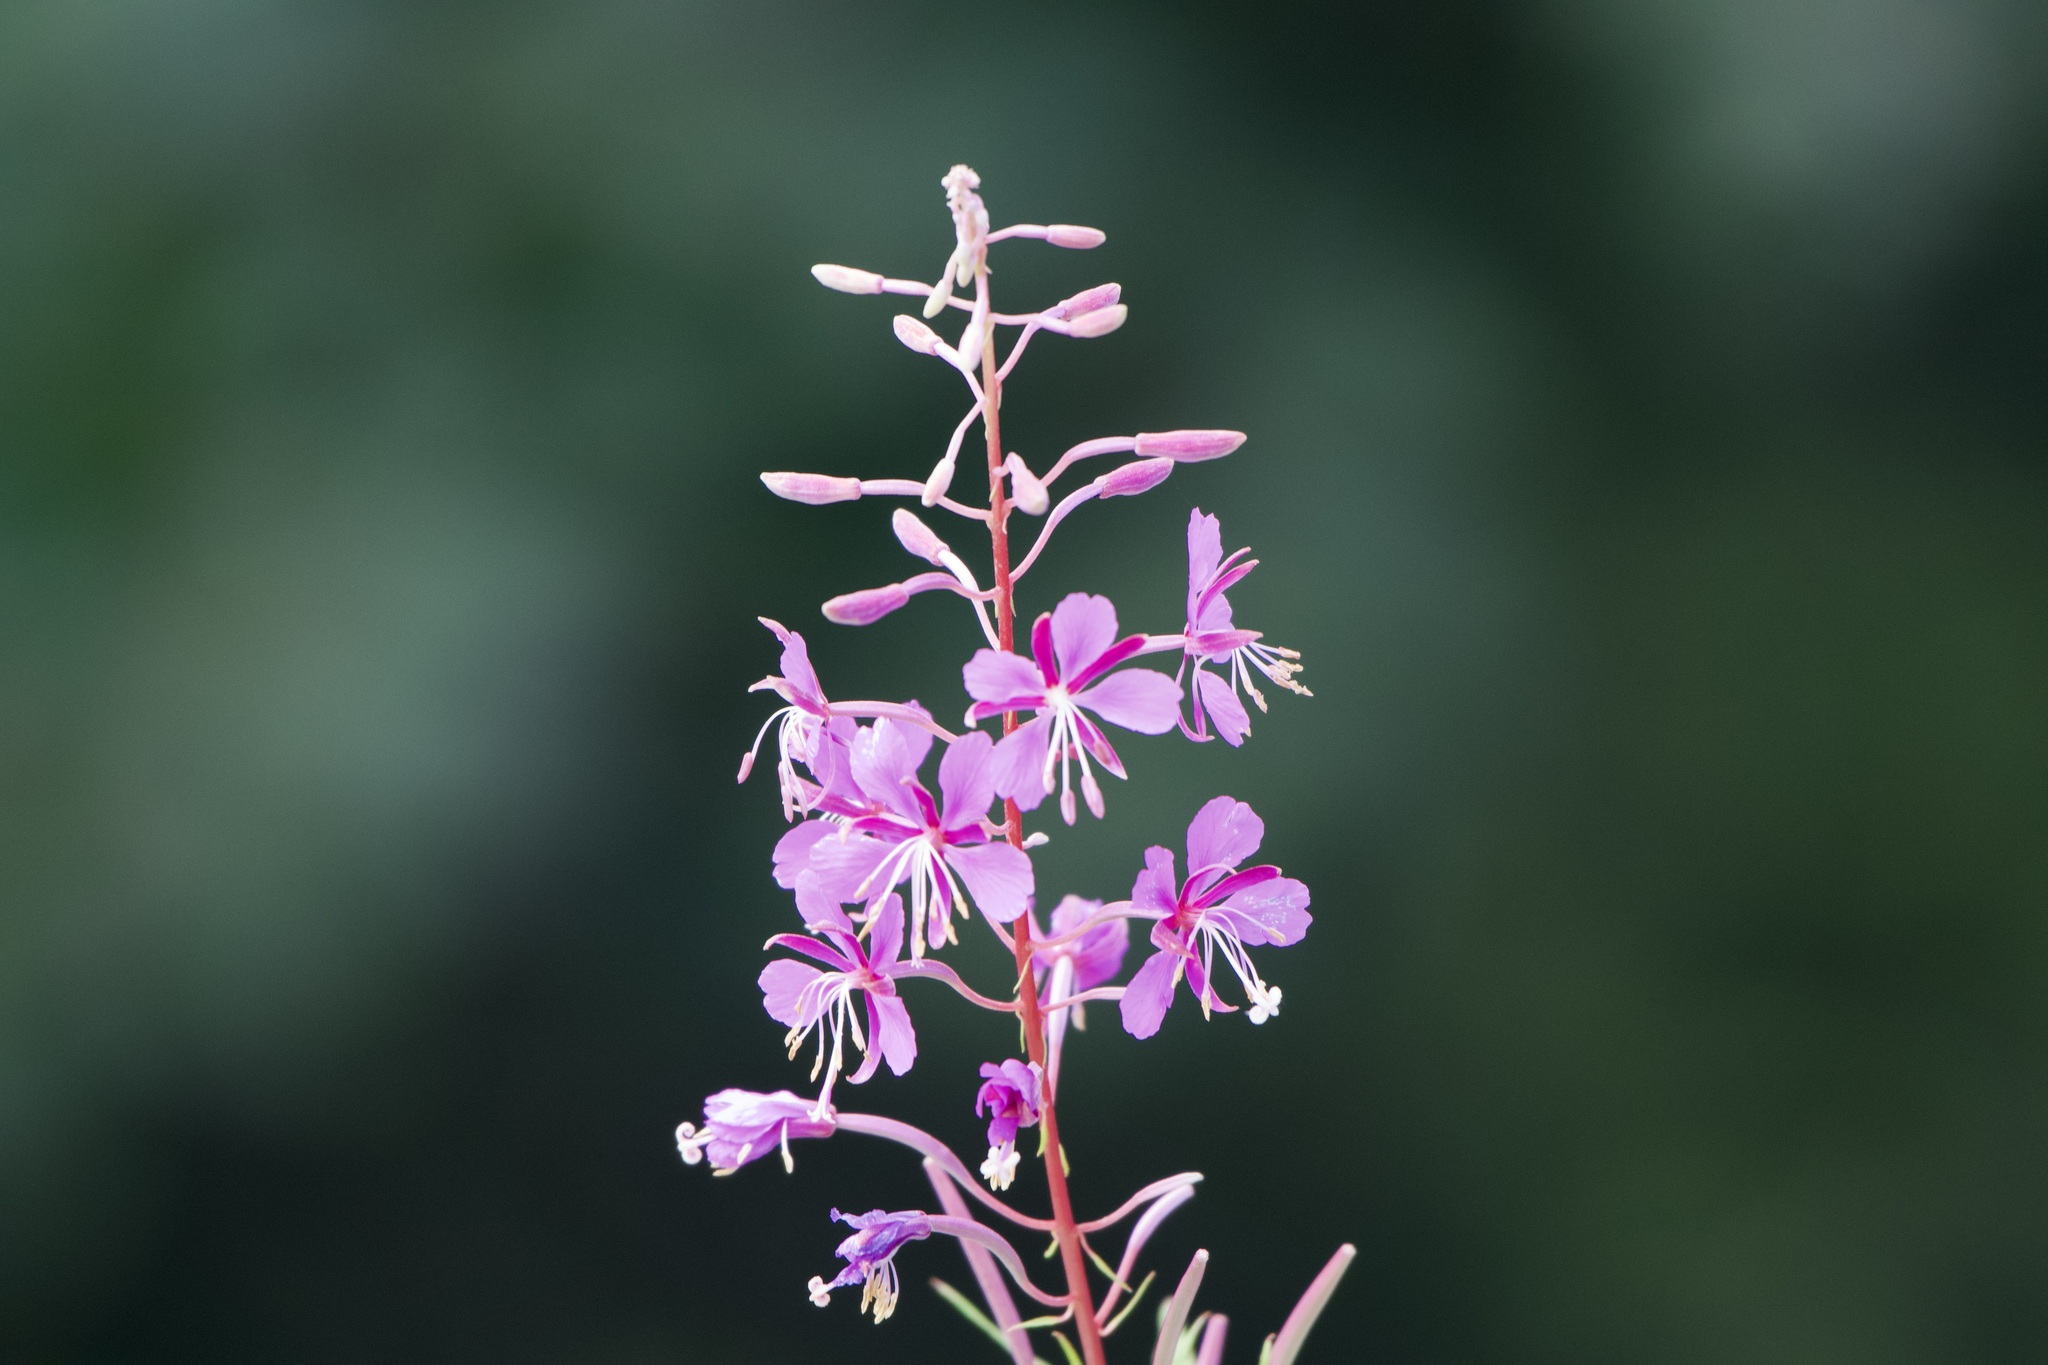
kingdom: Plantae
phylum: Tracheophyta
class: Magnoliopsida
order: Myrtales
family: Onagraceae
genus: Chamaenerion
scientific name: Chamaenerion angustifolium
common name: Fireweed
